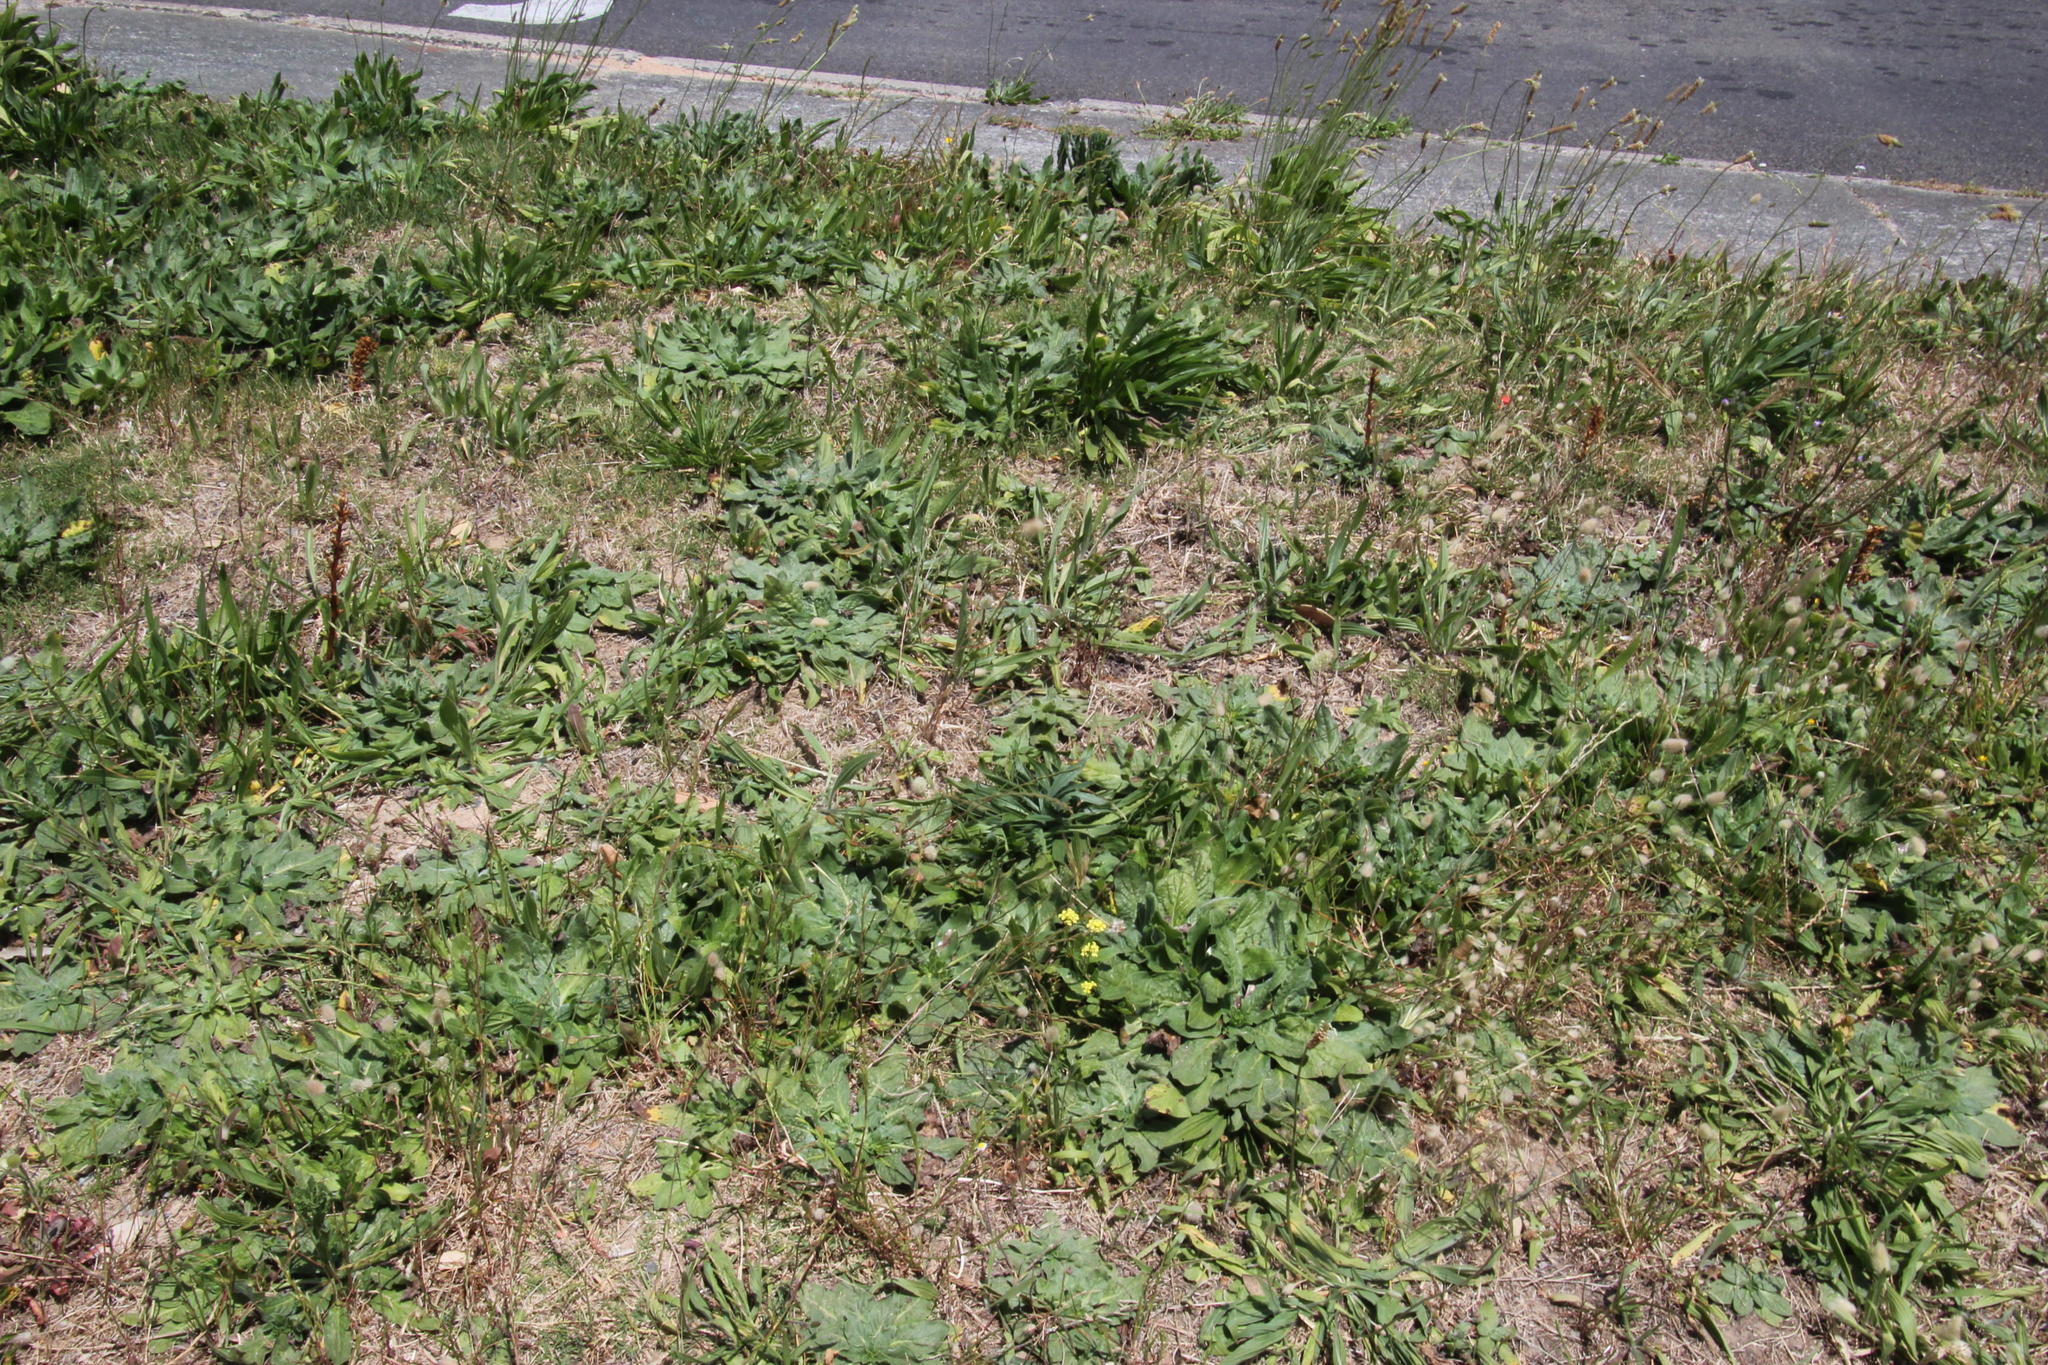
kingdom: Plantae
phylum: Tracheophyta
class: Magnoliopsida
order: Boraginales
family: Boraginaceae
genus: Echium
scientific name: Echium plantagineum
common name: Purple viper's-bugloss
